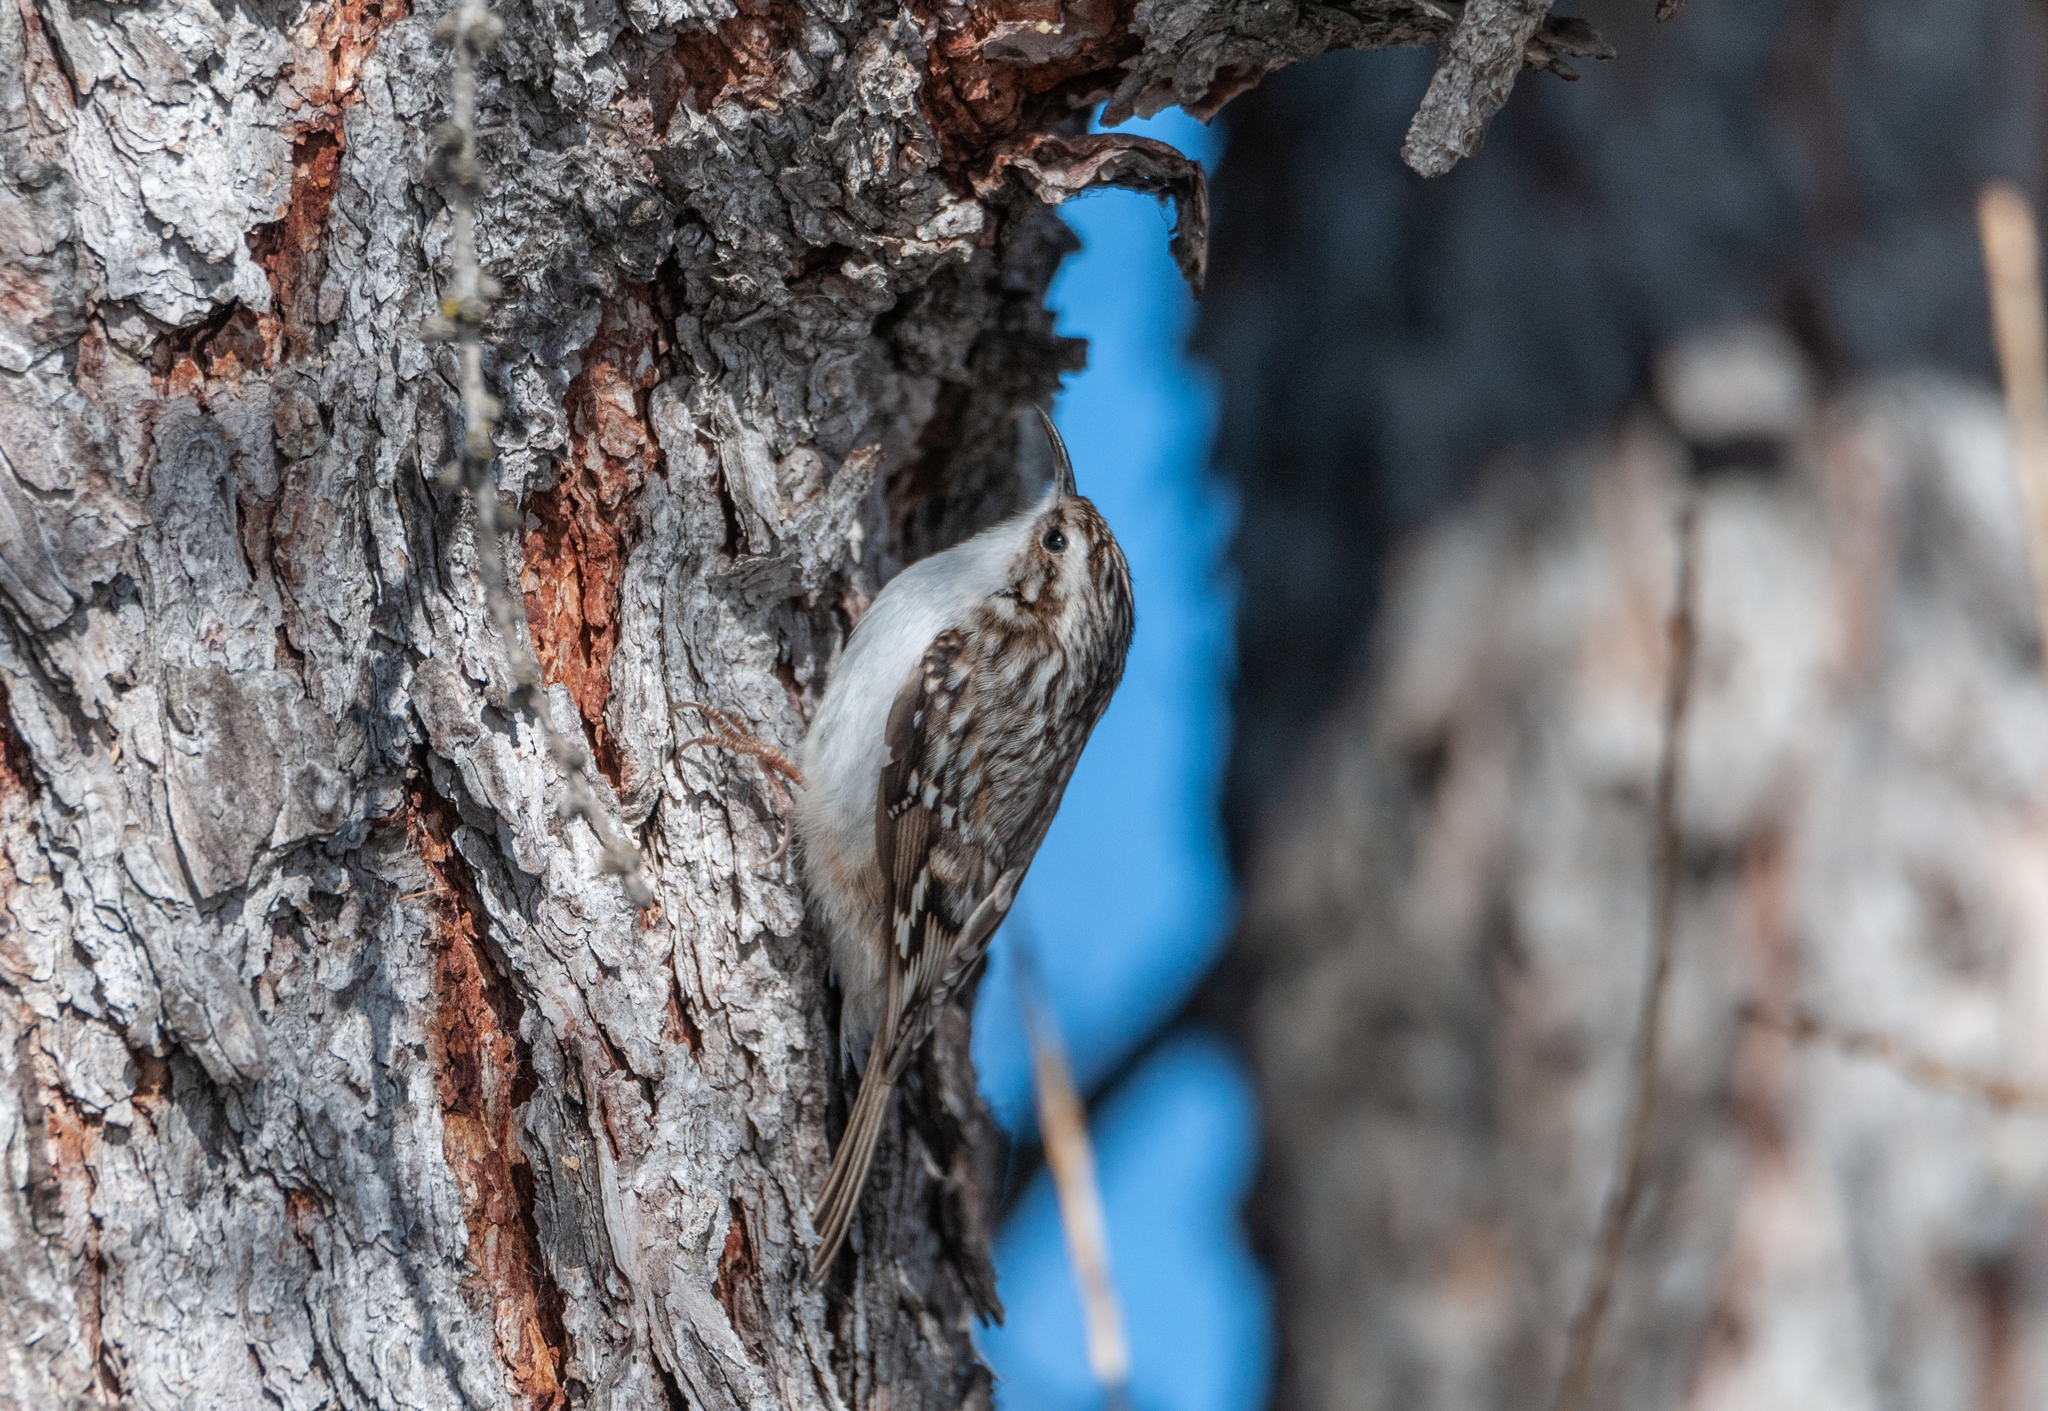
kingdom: Animalia
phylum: Chordata
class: Aves
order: Passeriformes
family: Certhiidae
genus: Certhia
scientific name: Certhia familiaris
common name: Eurasian treecreeper
